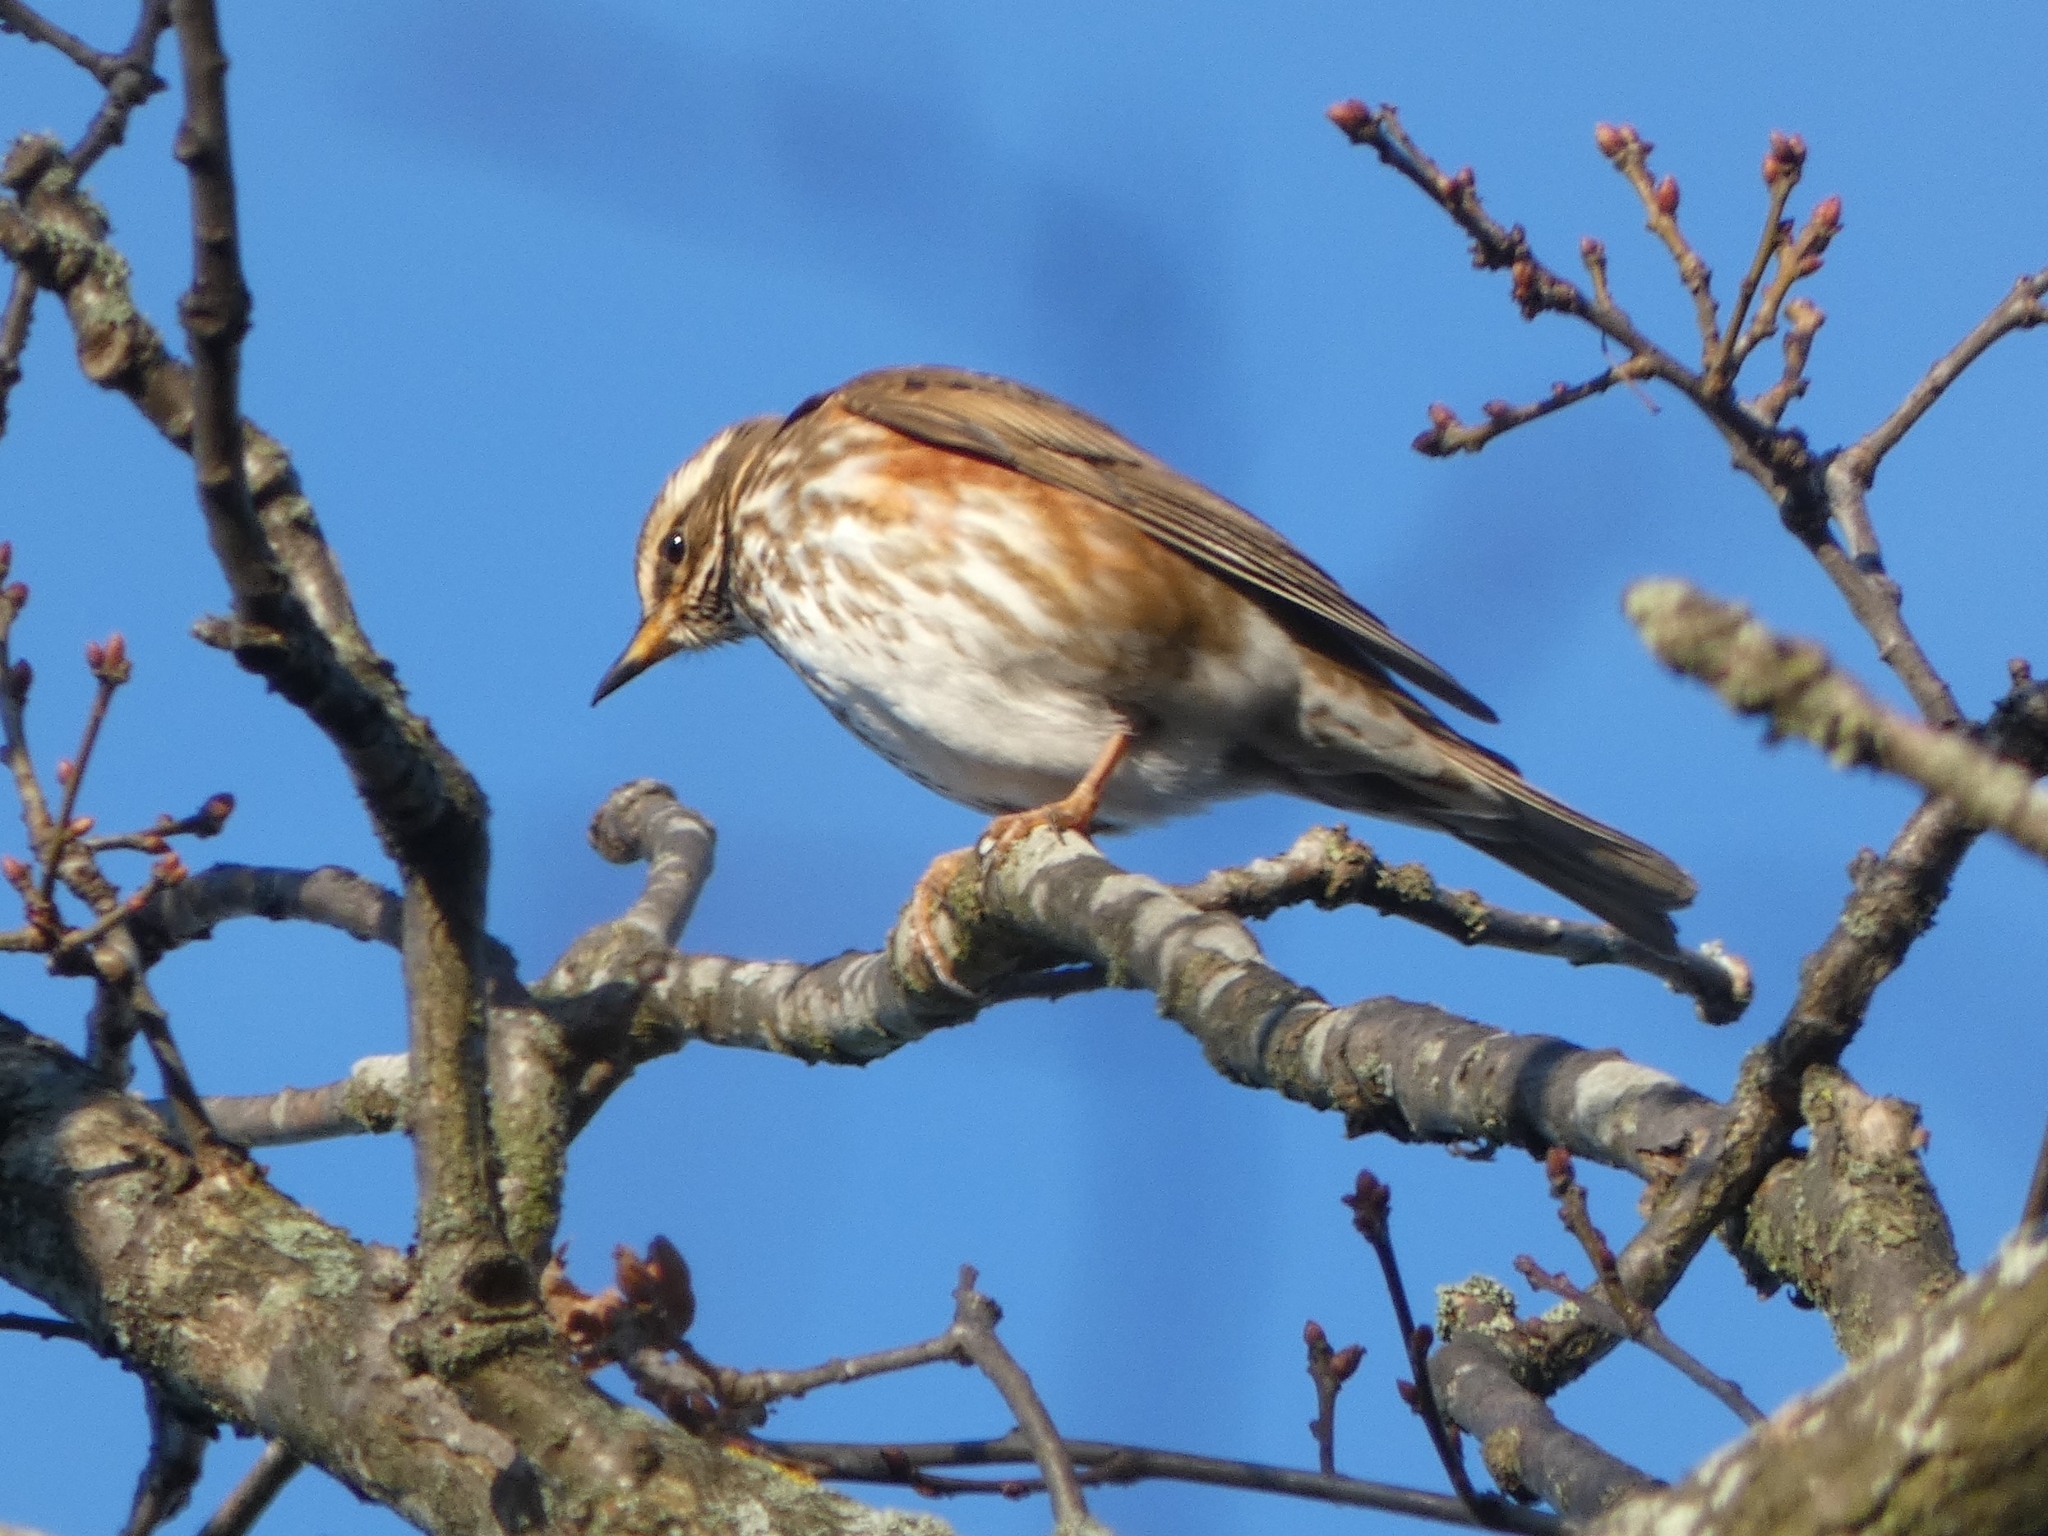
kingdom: Animalia
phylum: Chordata
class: Aves
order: Passeriformes
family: Turdidae
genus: Turdus
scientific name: Turdus iliacus
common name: Redwing
